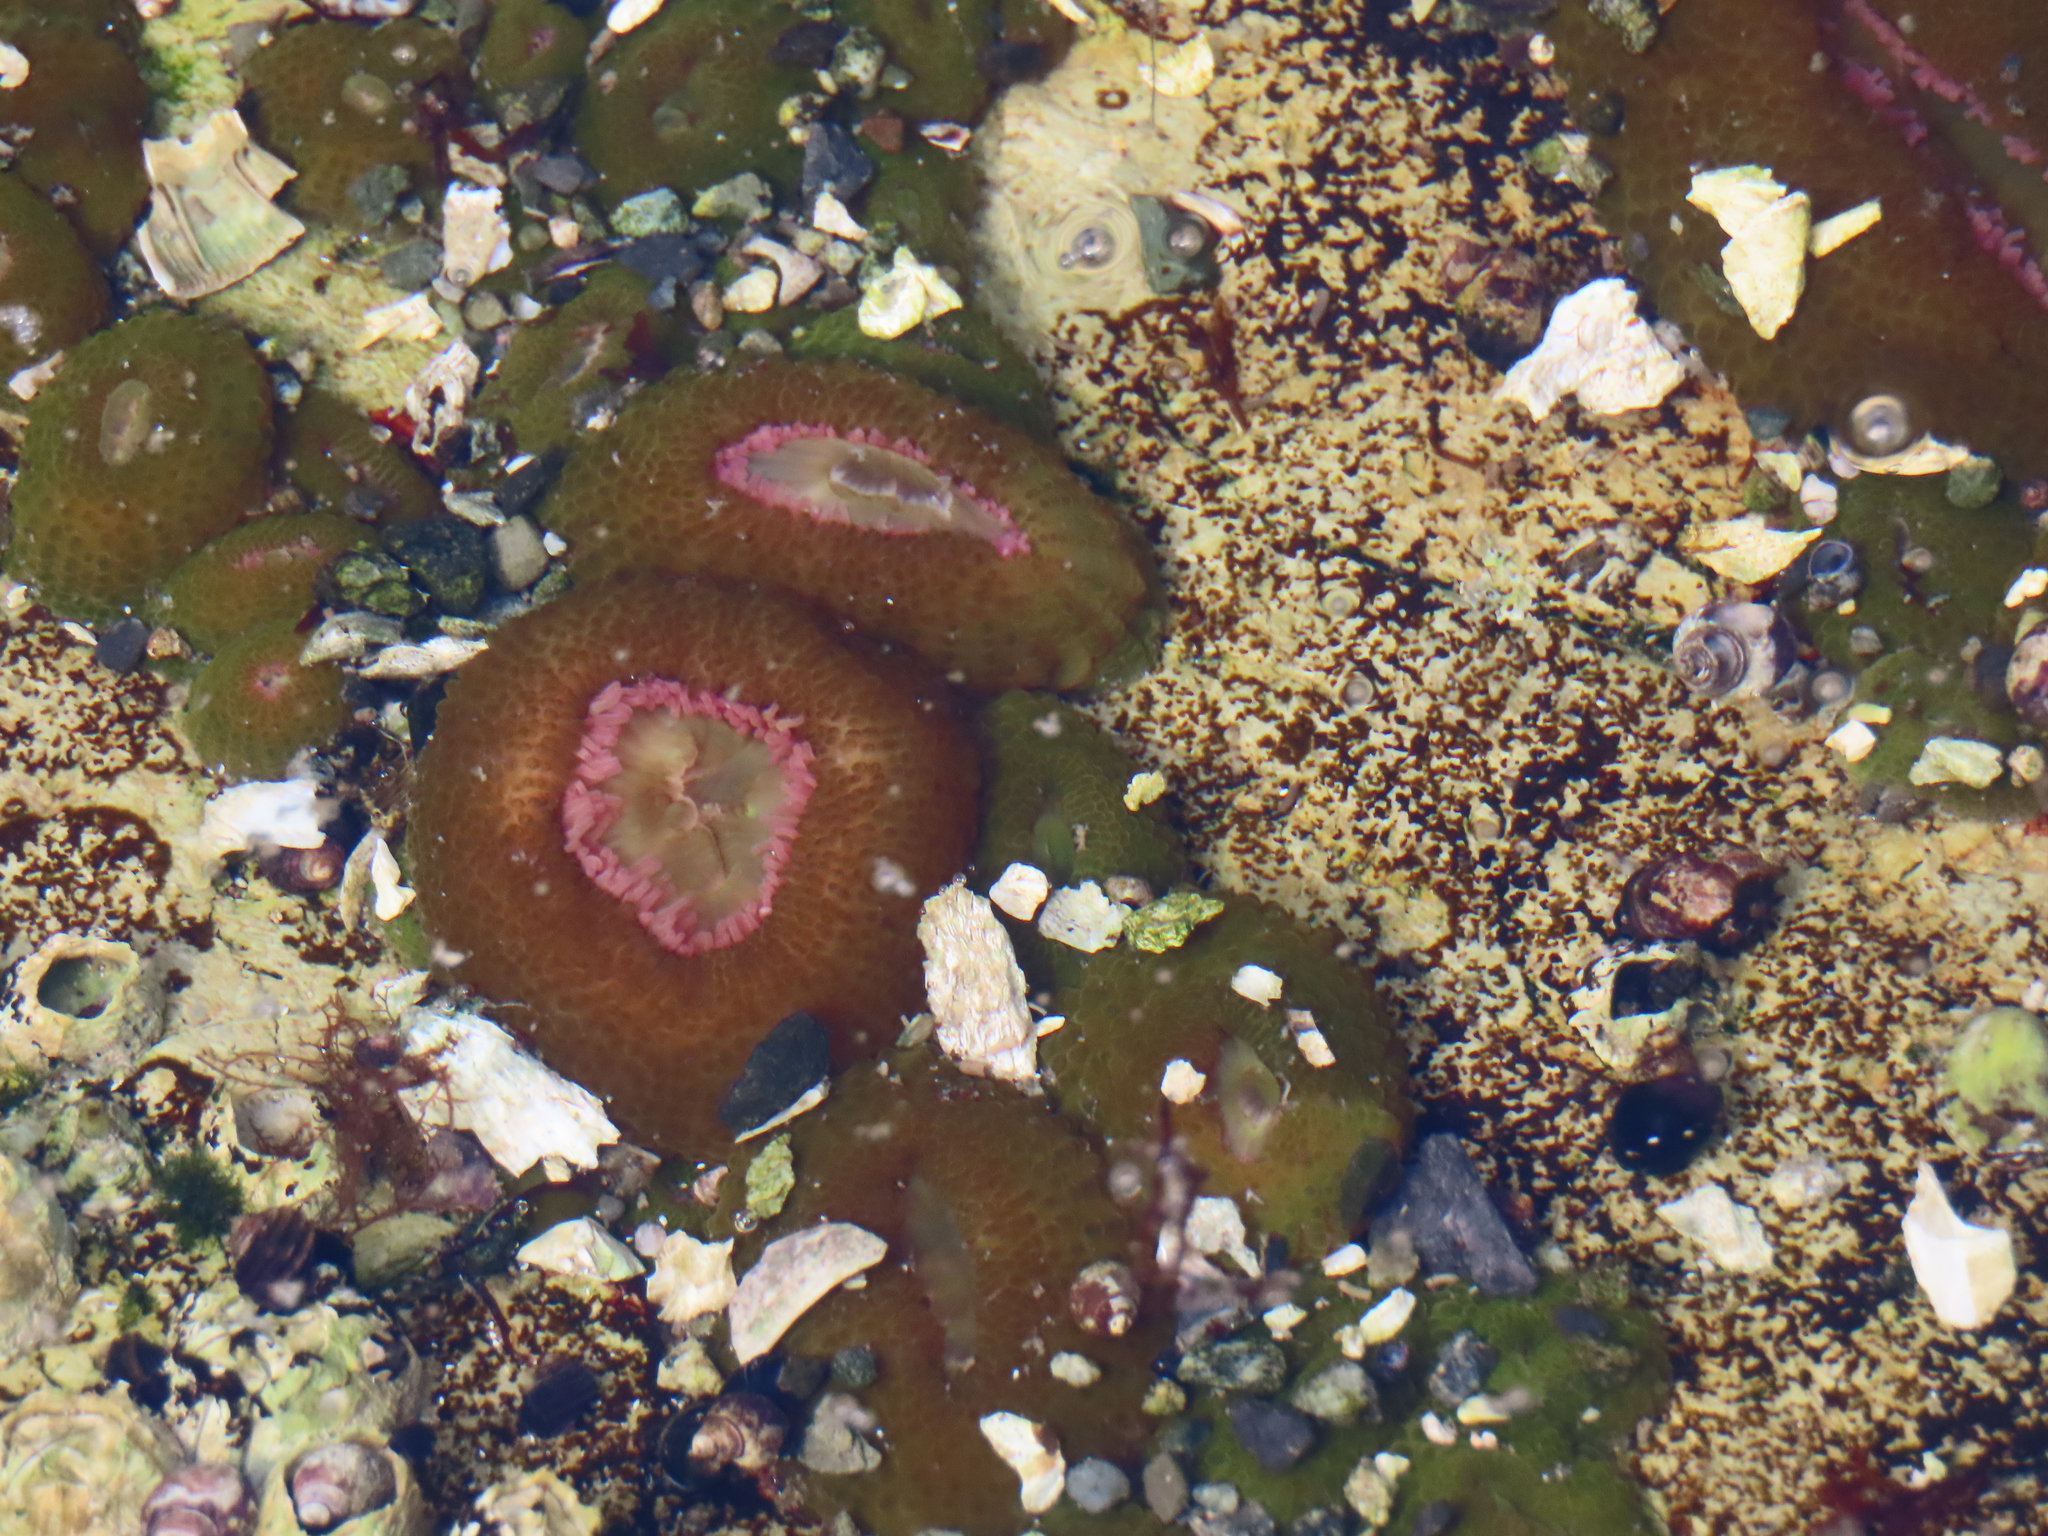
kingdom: Animalia
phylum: Cnidaria
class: Anthozoa
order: Actiniaria
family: Actiniidae
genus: Anthopleura
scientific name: Anthopleura elegantissima
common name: Clonal anemone
